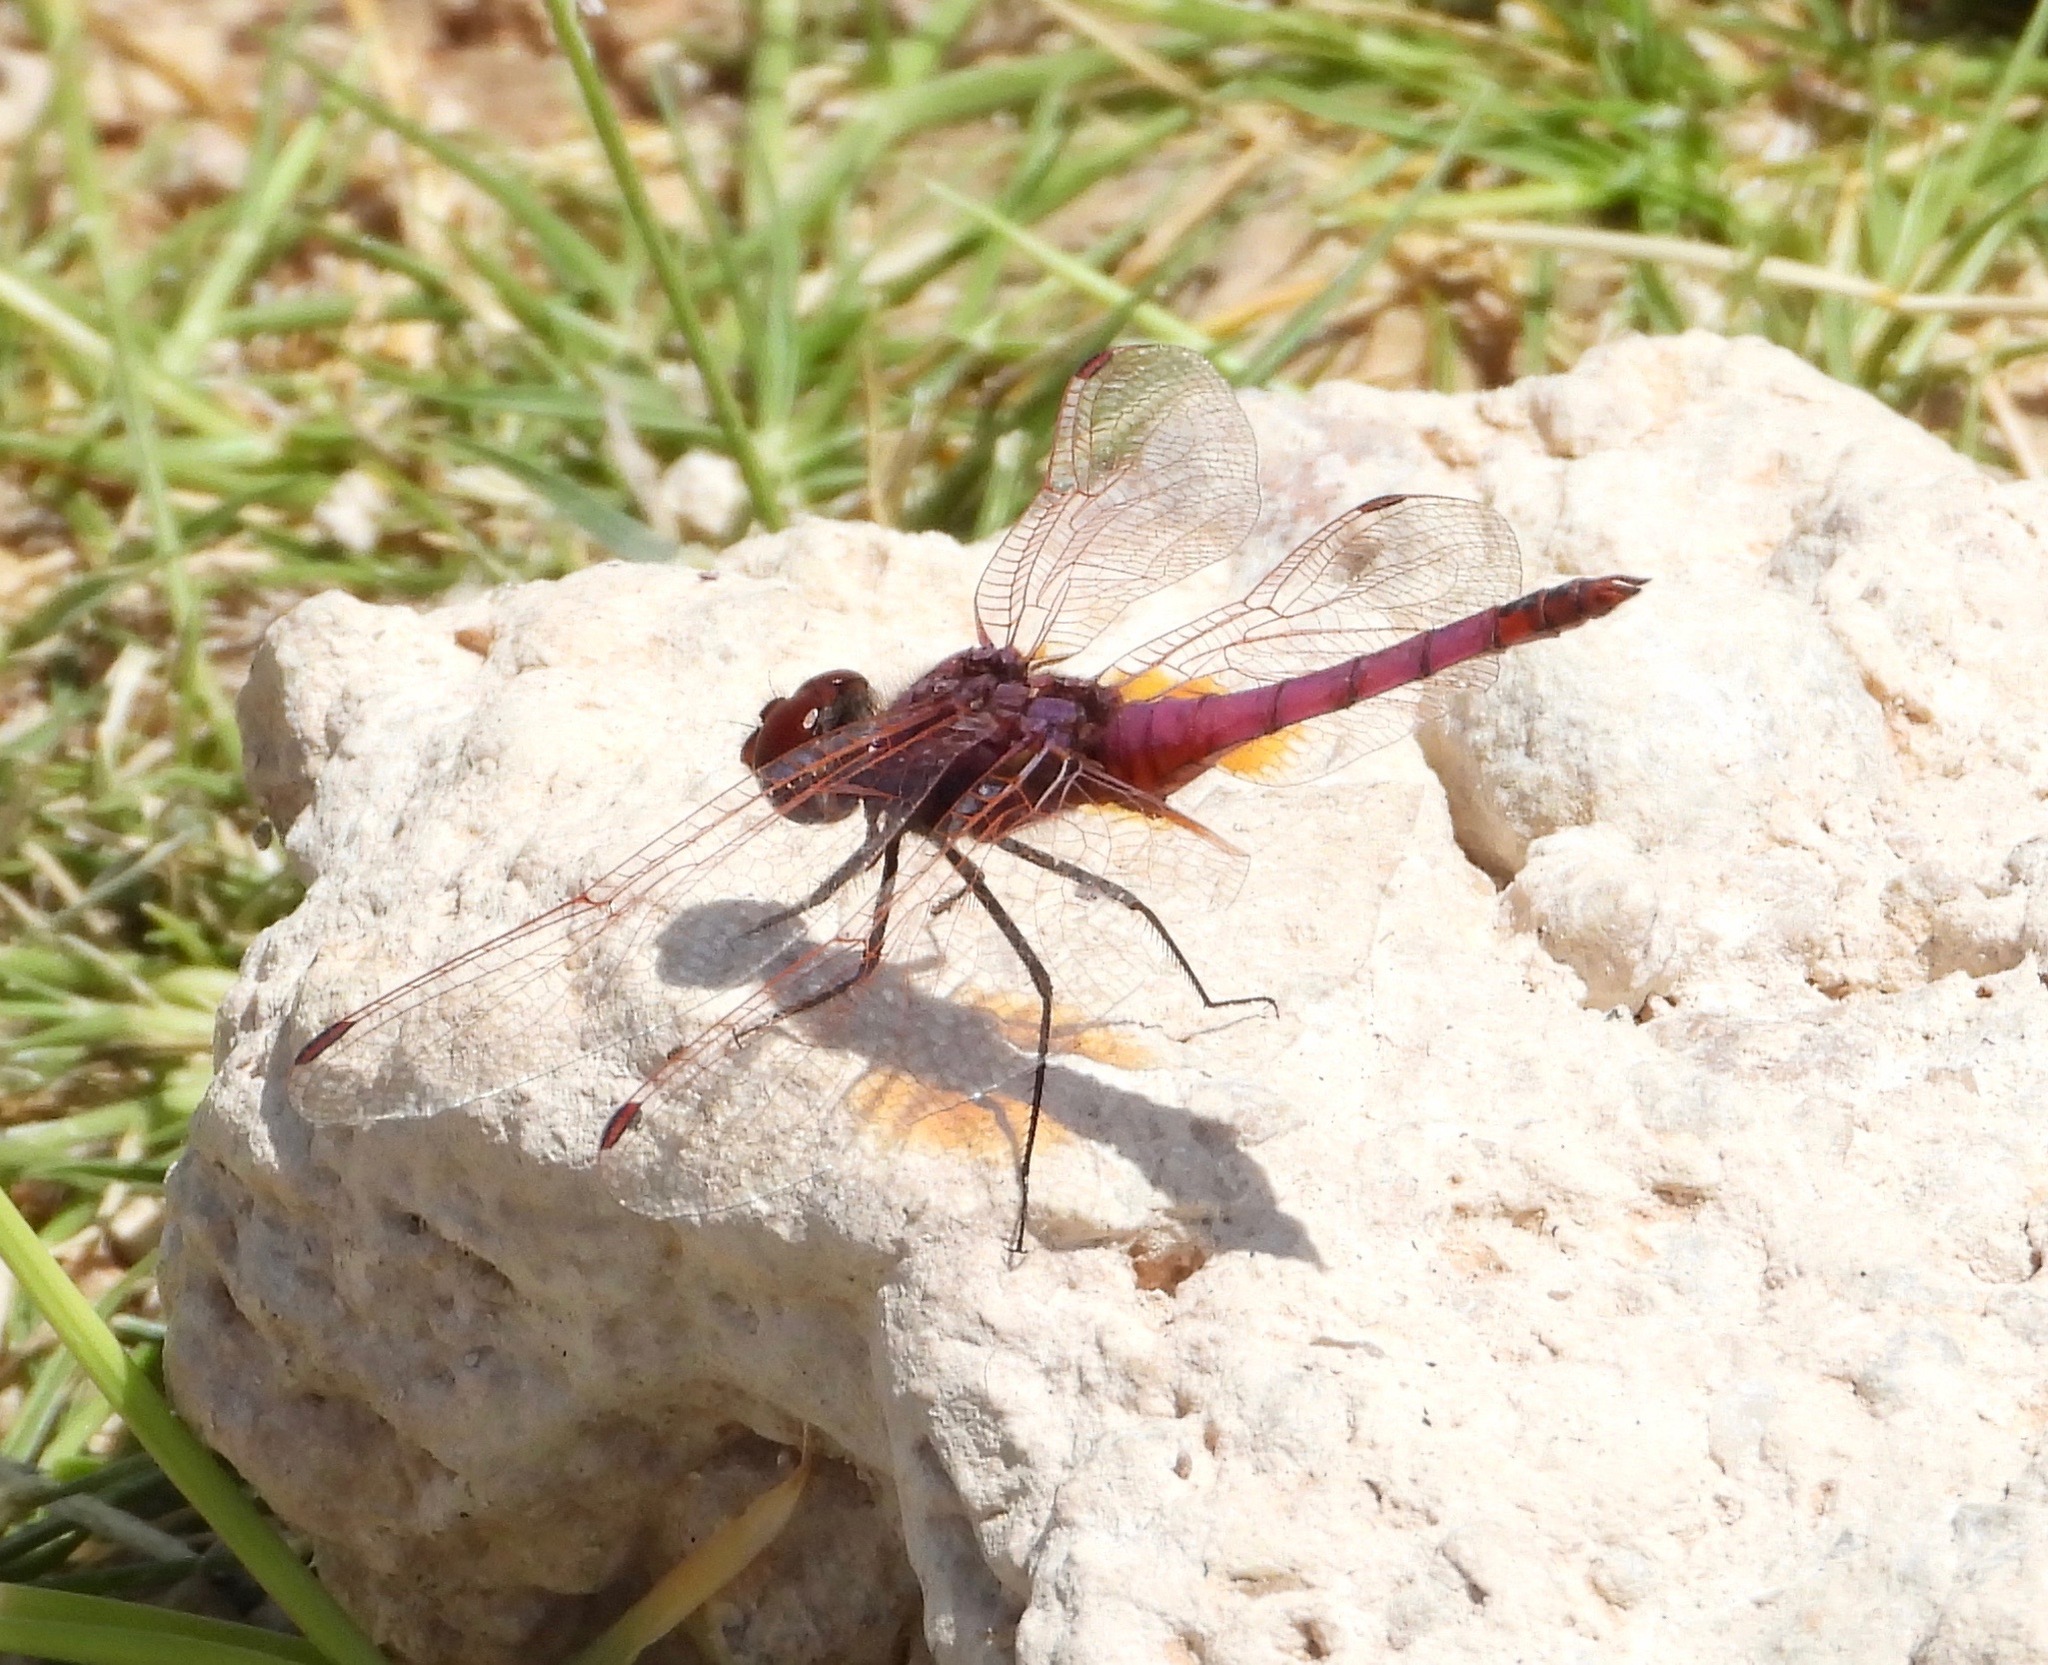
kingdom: Animalia
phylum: Arthropoda
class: Insecta
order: Odonata
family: Libellulidae
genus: Trithemis
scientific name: Trithemis annulata
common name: Violet dropwing
